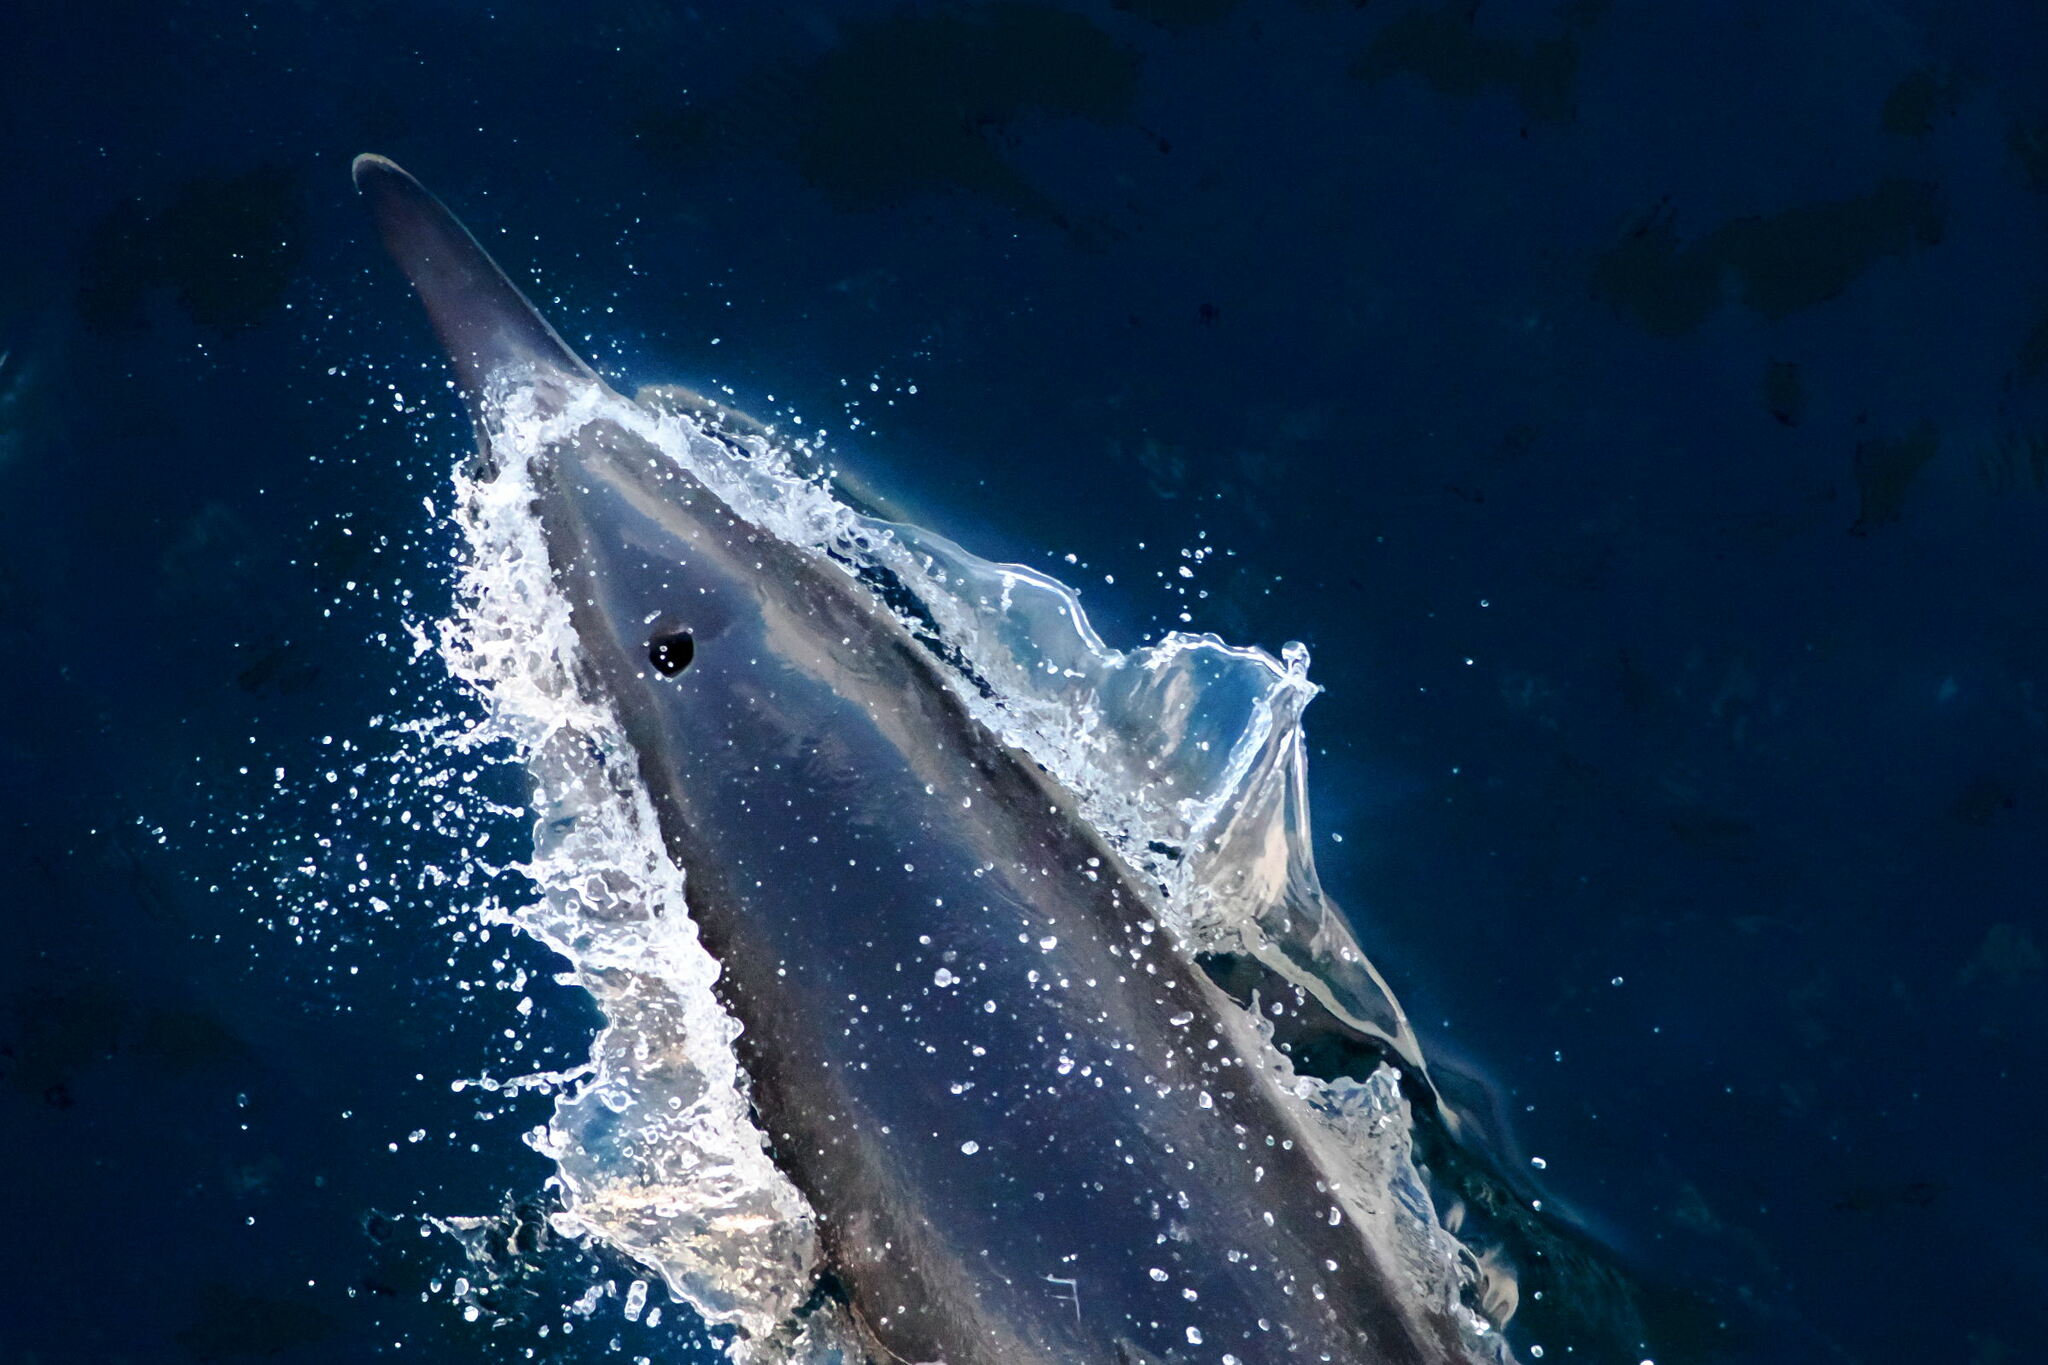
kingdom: Animalia
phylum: Chordata
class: Mammalia
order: Cetacea
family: Delphinidae
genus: Delphinus
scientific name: Delphinus delphis
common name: Common dolphin
